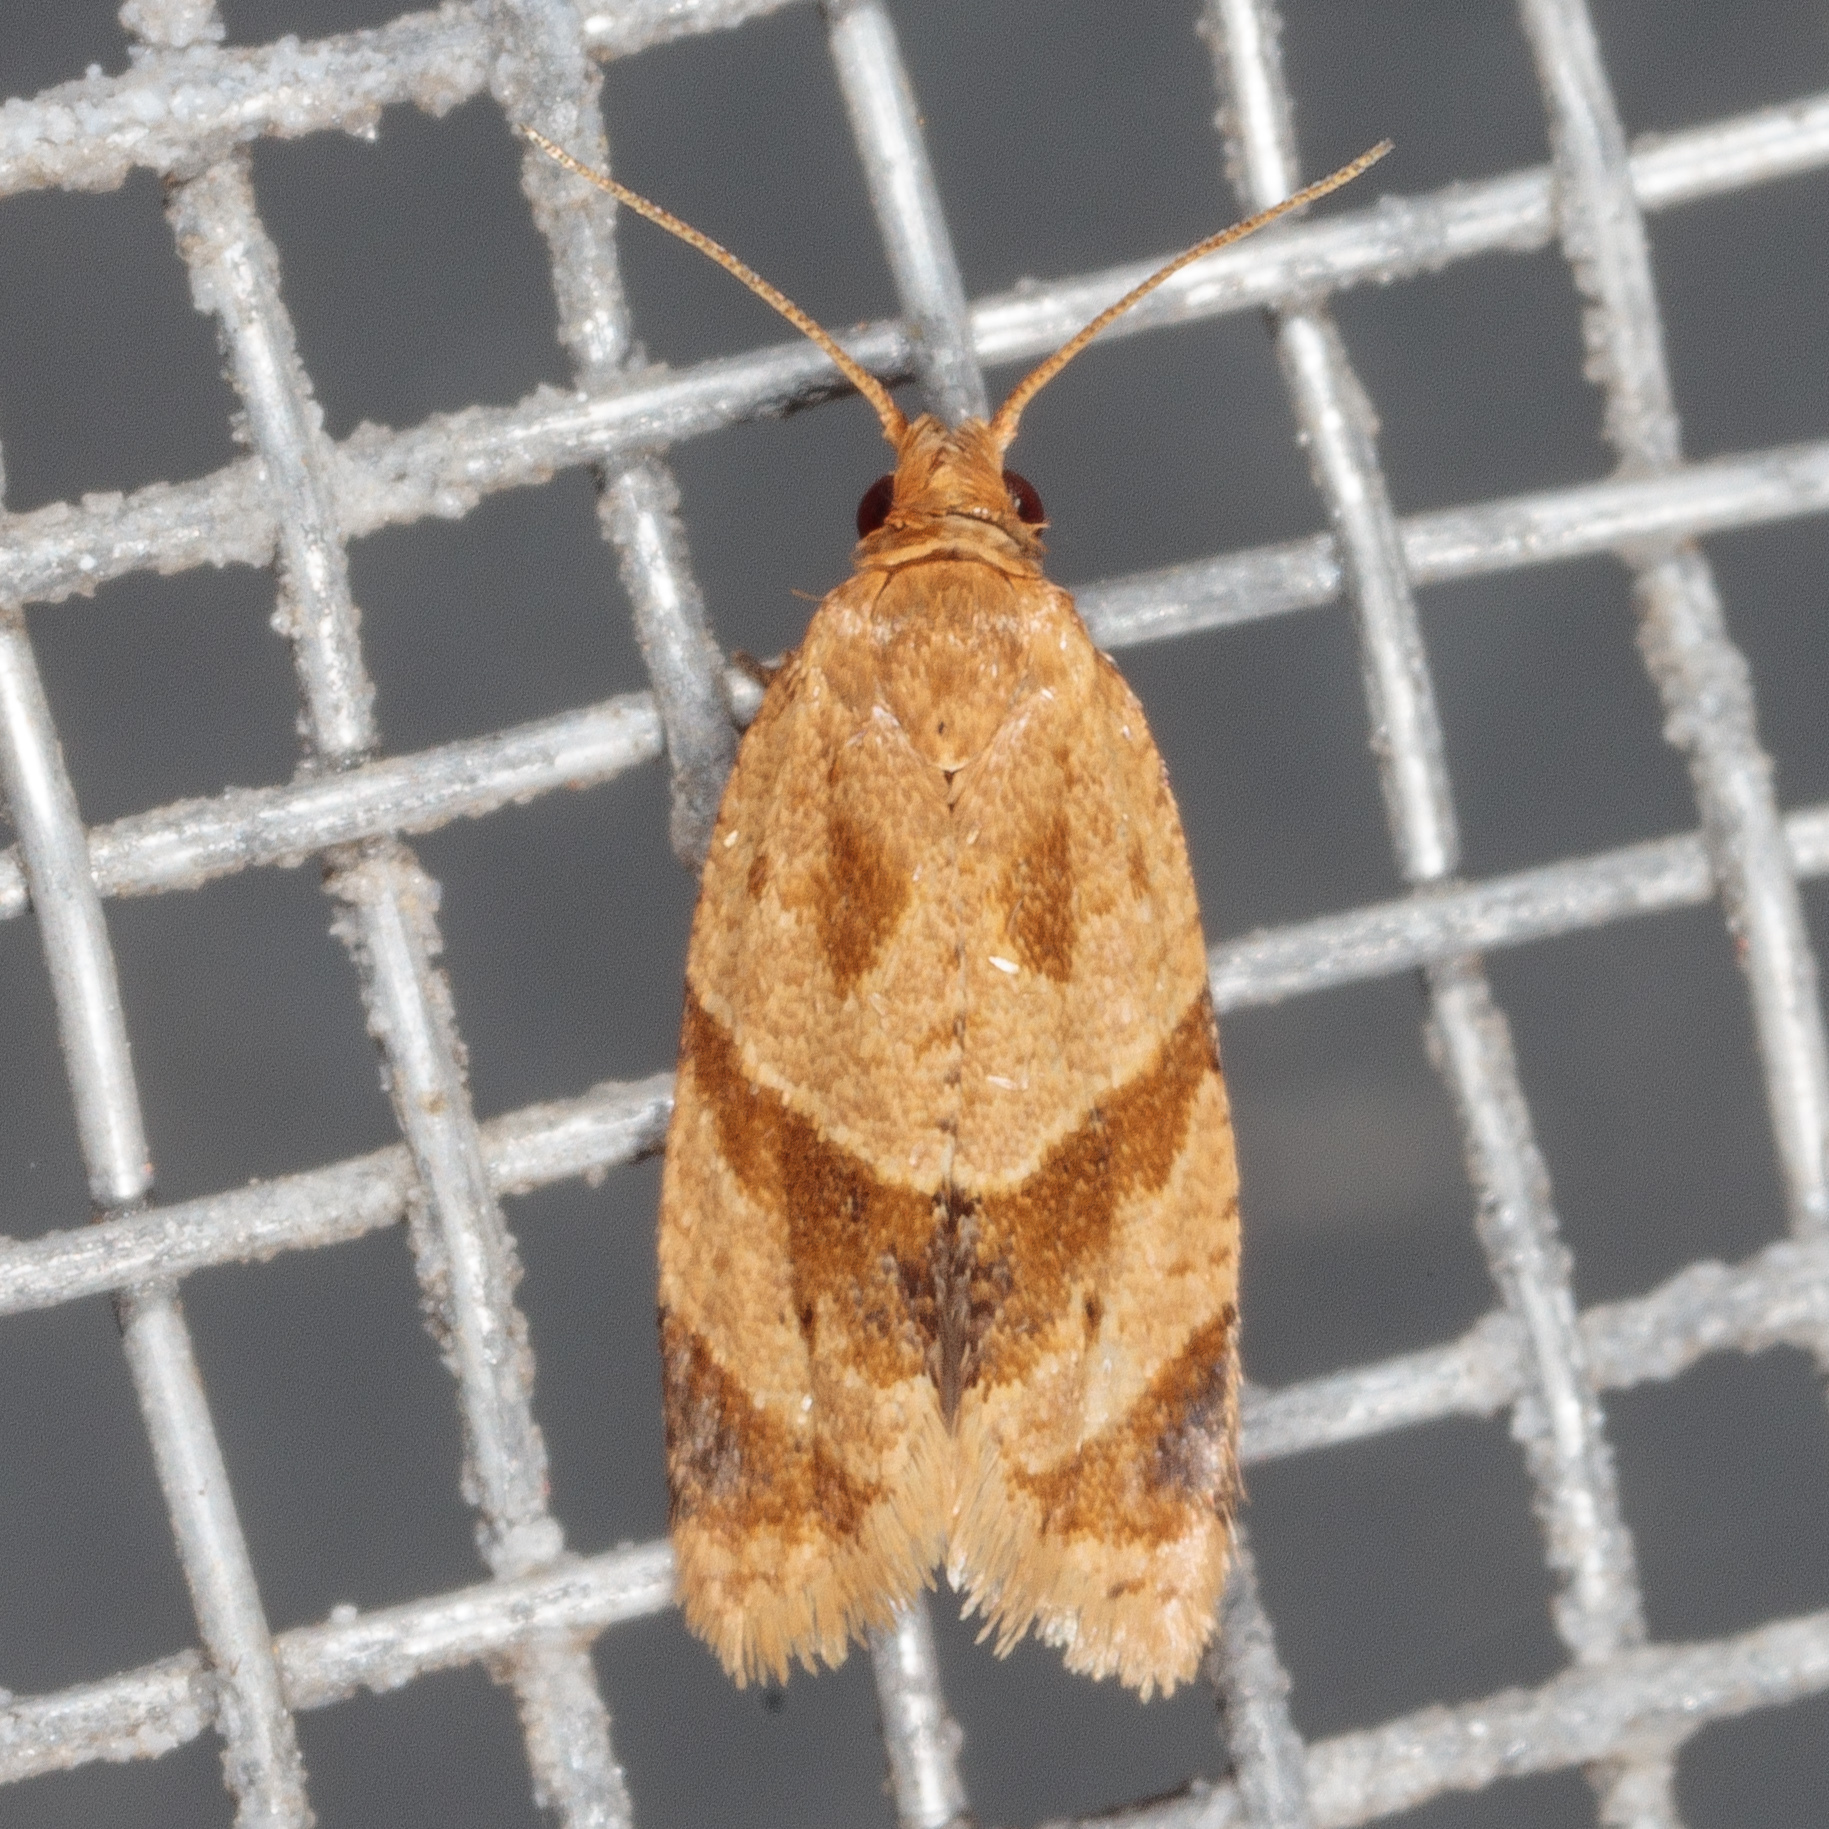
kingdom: Animalia
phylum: Arthropoda
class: Insecta
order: Lepidoptera
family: Tortricidae
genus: Clepsis
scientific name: Clepsis peritana
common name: Garden tortrix
